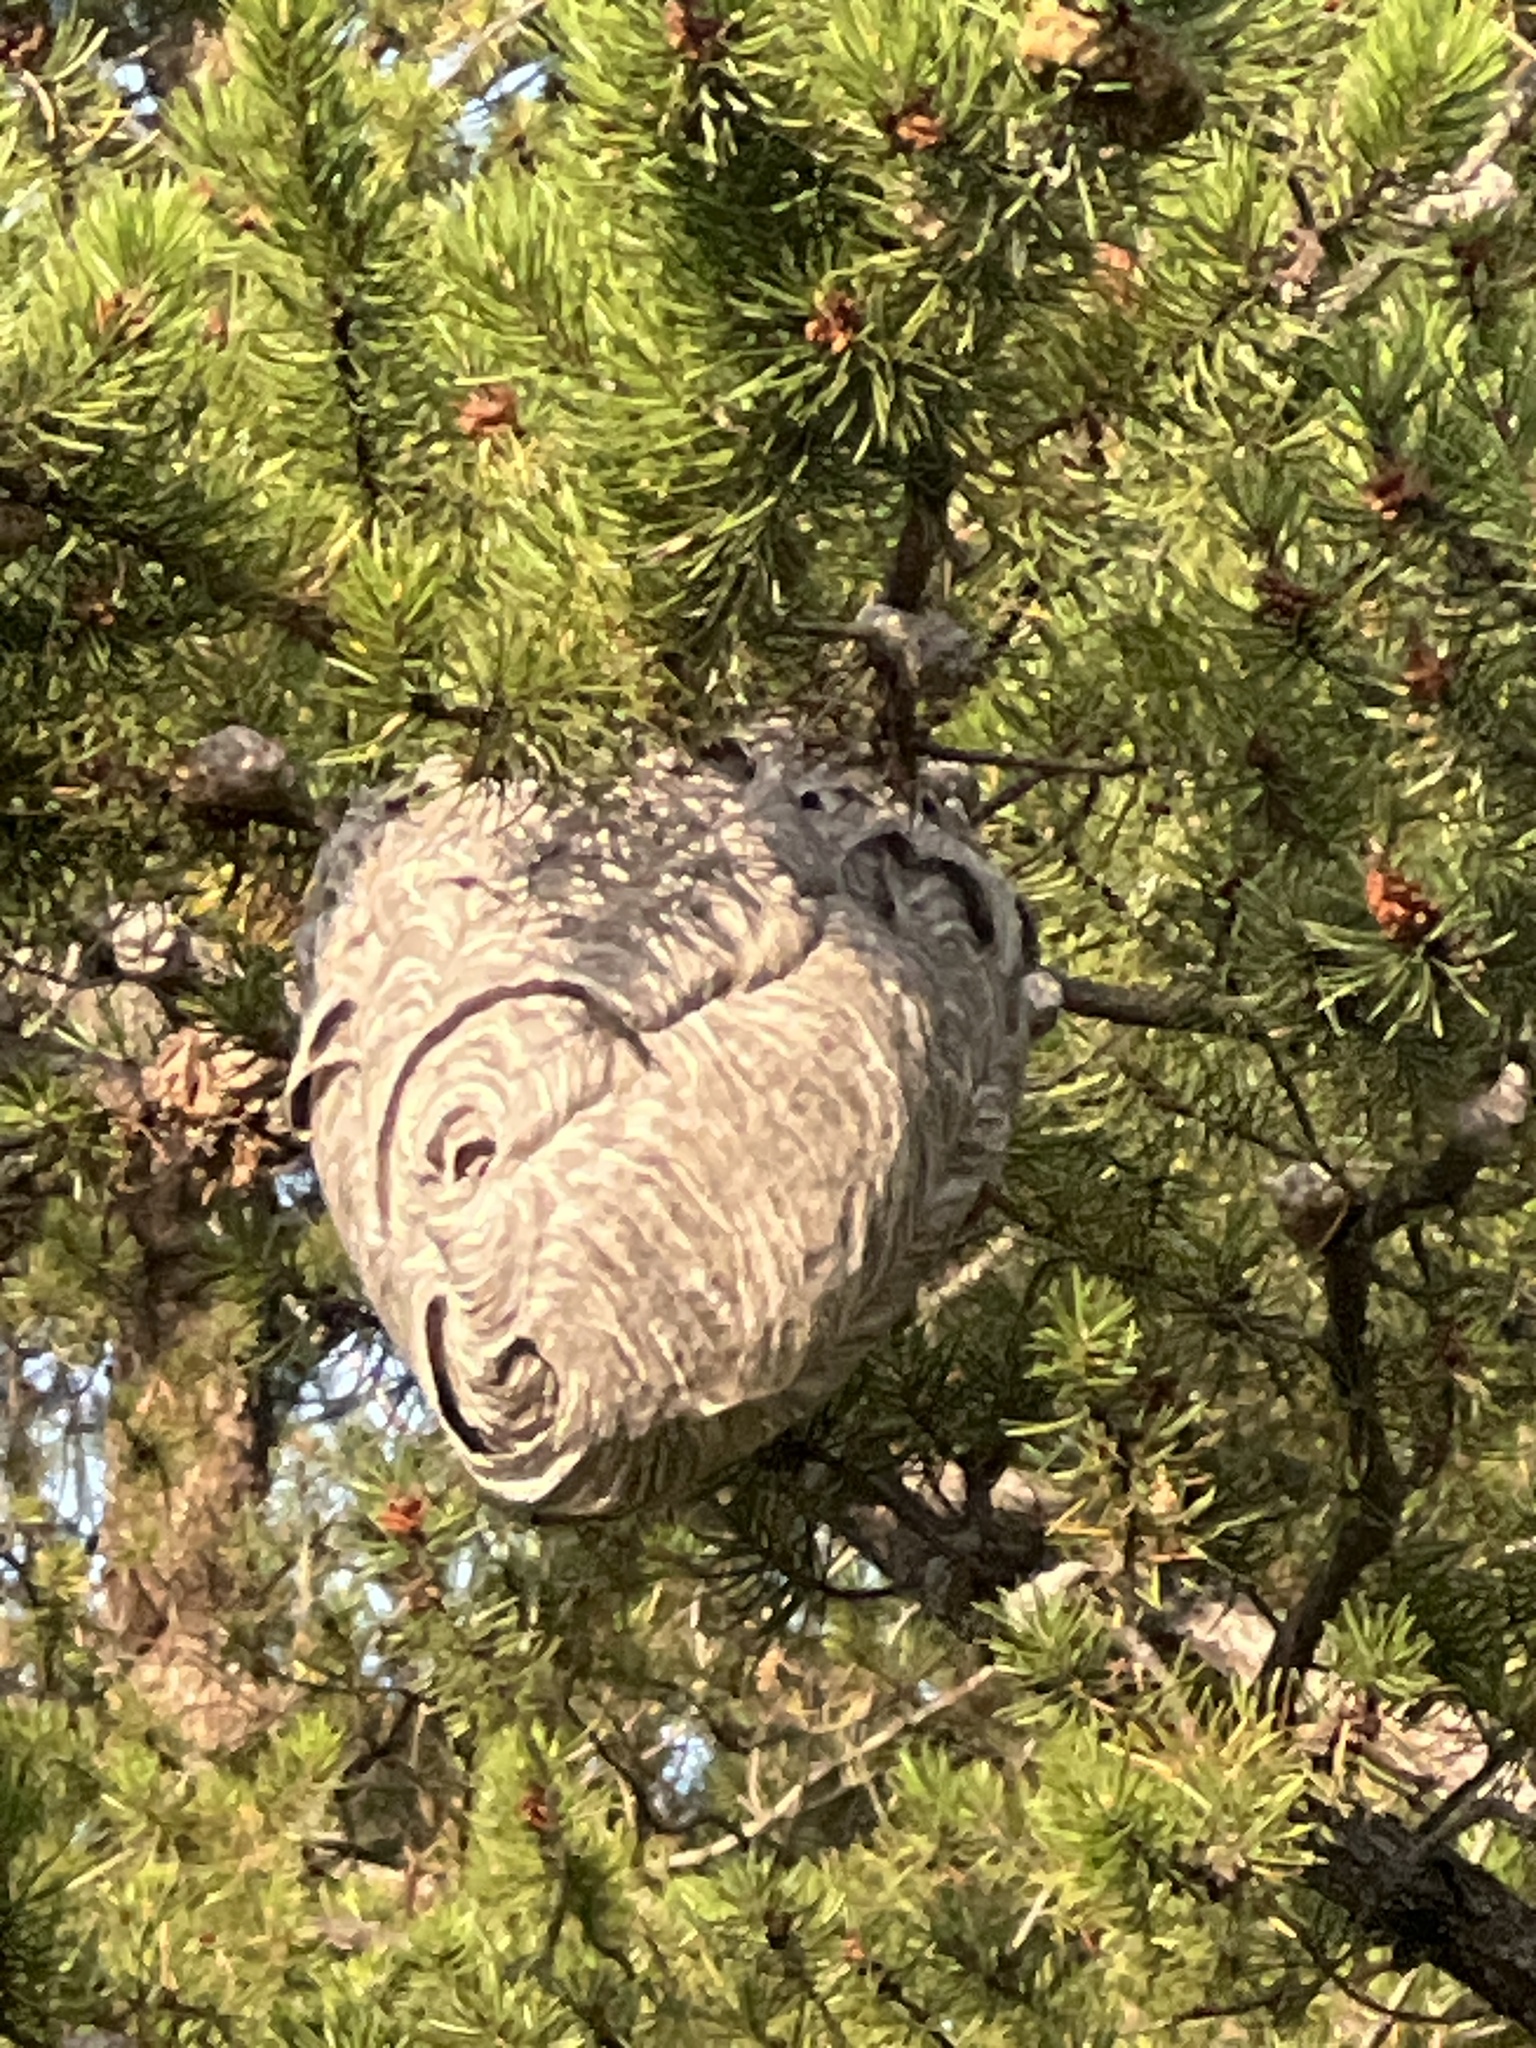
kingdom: Animalia
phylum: Arthropoda
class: Insecta
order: Hymenoptera
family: Vespidae
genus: Dolichovespula
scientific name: Dolichovespula maculata
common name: Bald-faced hornet
